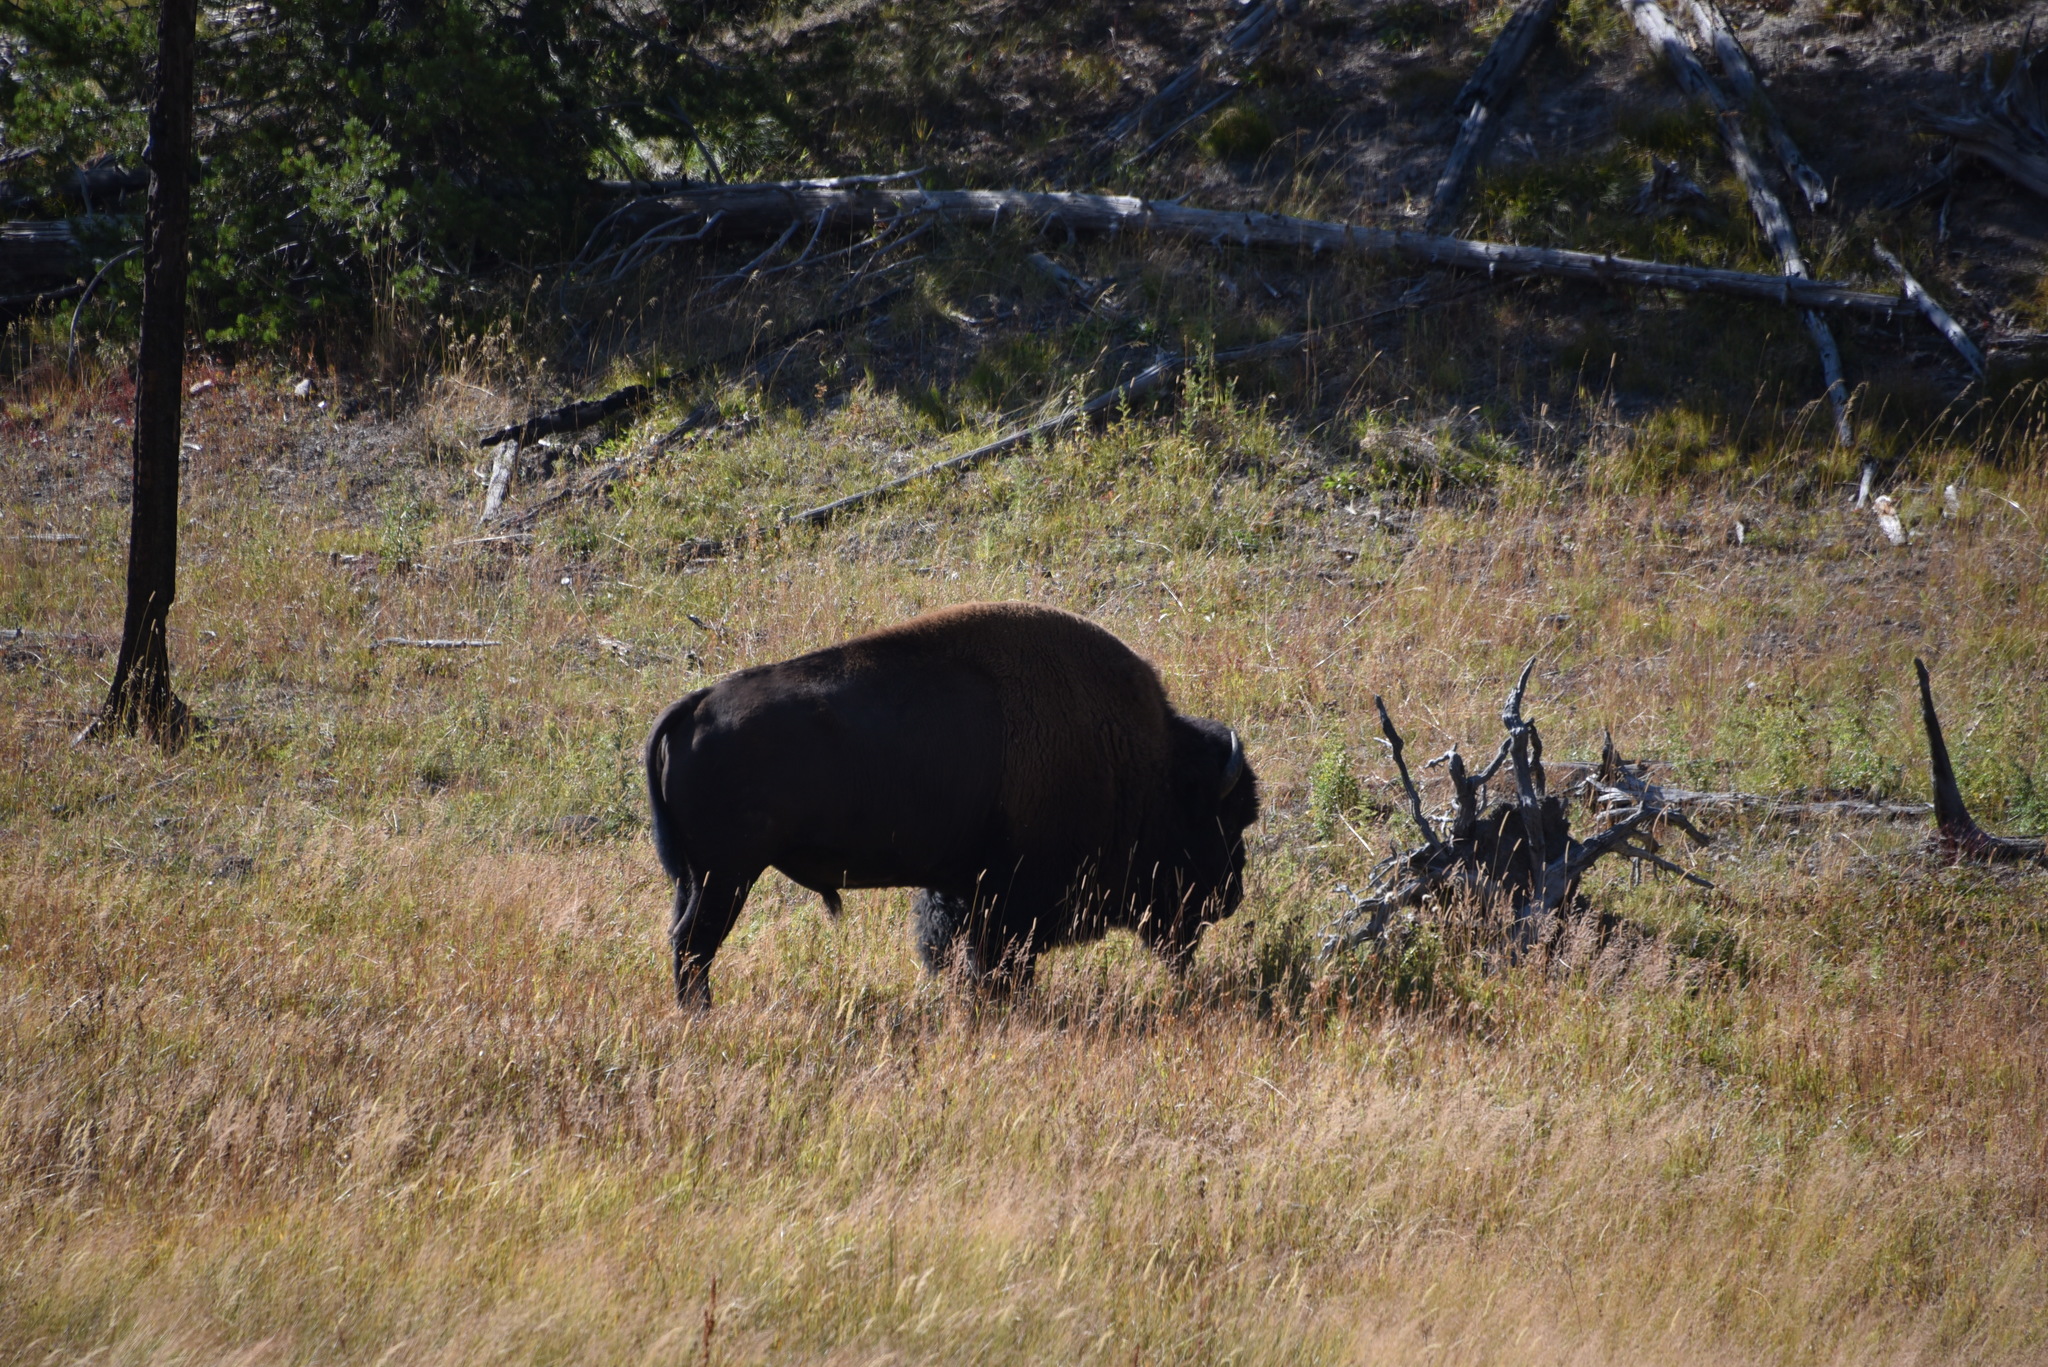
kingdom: Animalia
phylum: Chordata
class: Mammalia
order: Artiodactyla
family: Bovidae
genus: Bison
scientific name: Bison bison
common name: American bison
